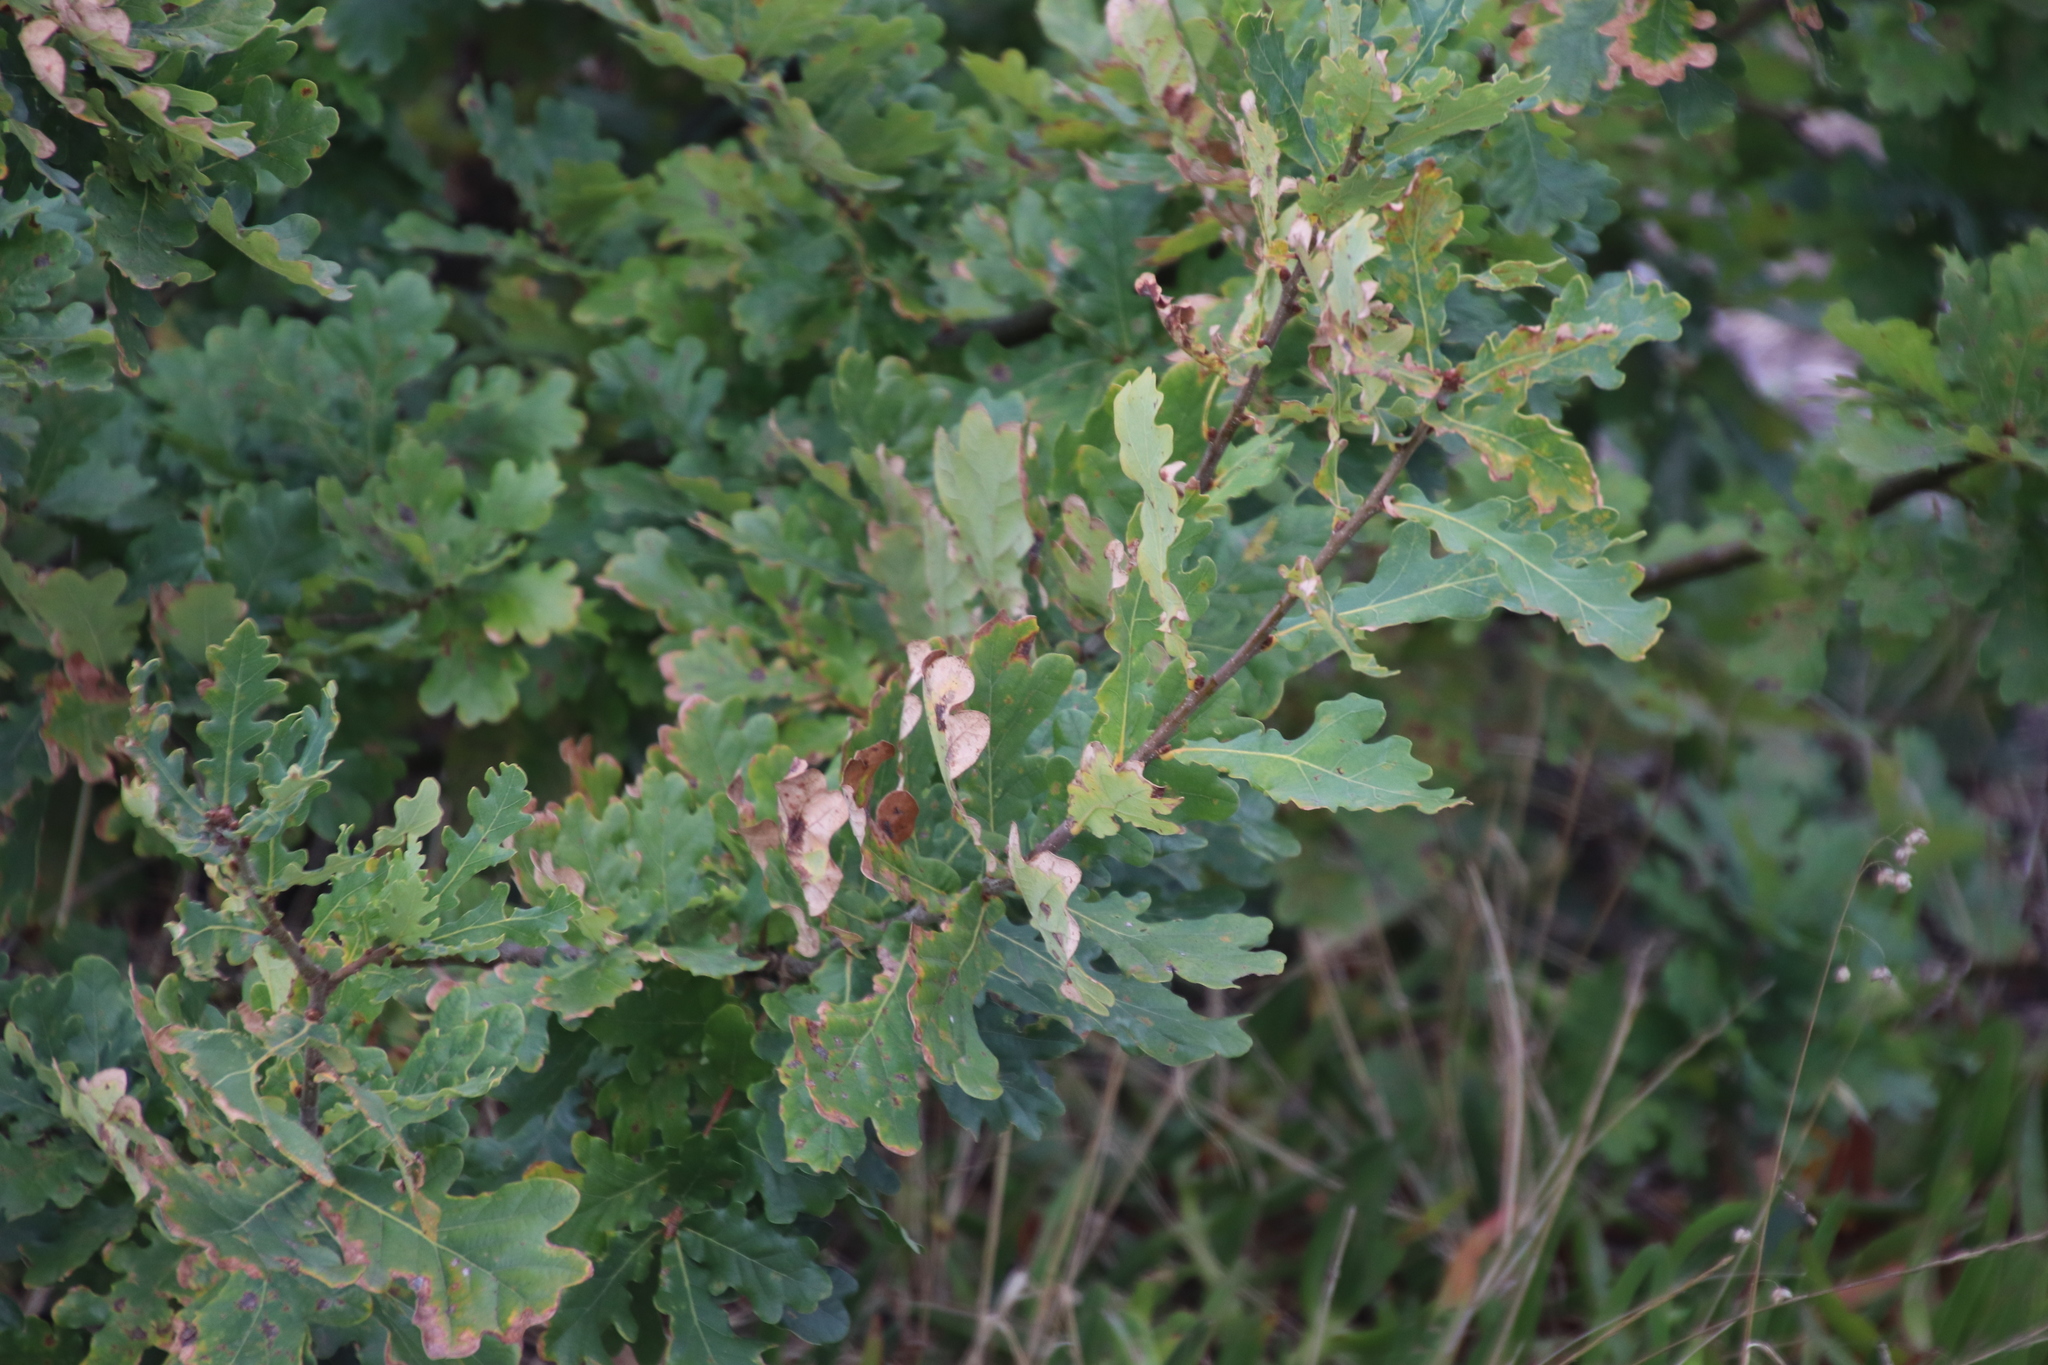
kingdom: Plantae
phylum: Tracheophyta
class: Magnoliopsida
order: Fagales
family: Fagaceae
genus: Quercus
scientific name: Quercus robur
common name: Pedunculate oak
